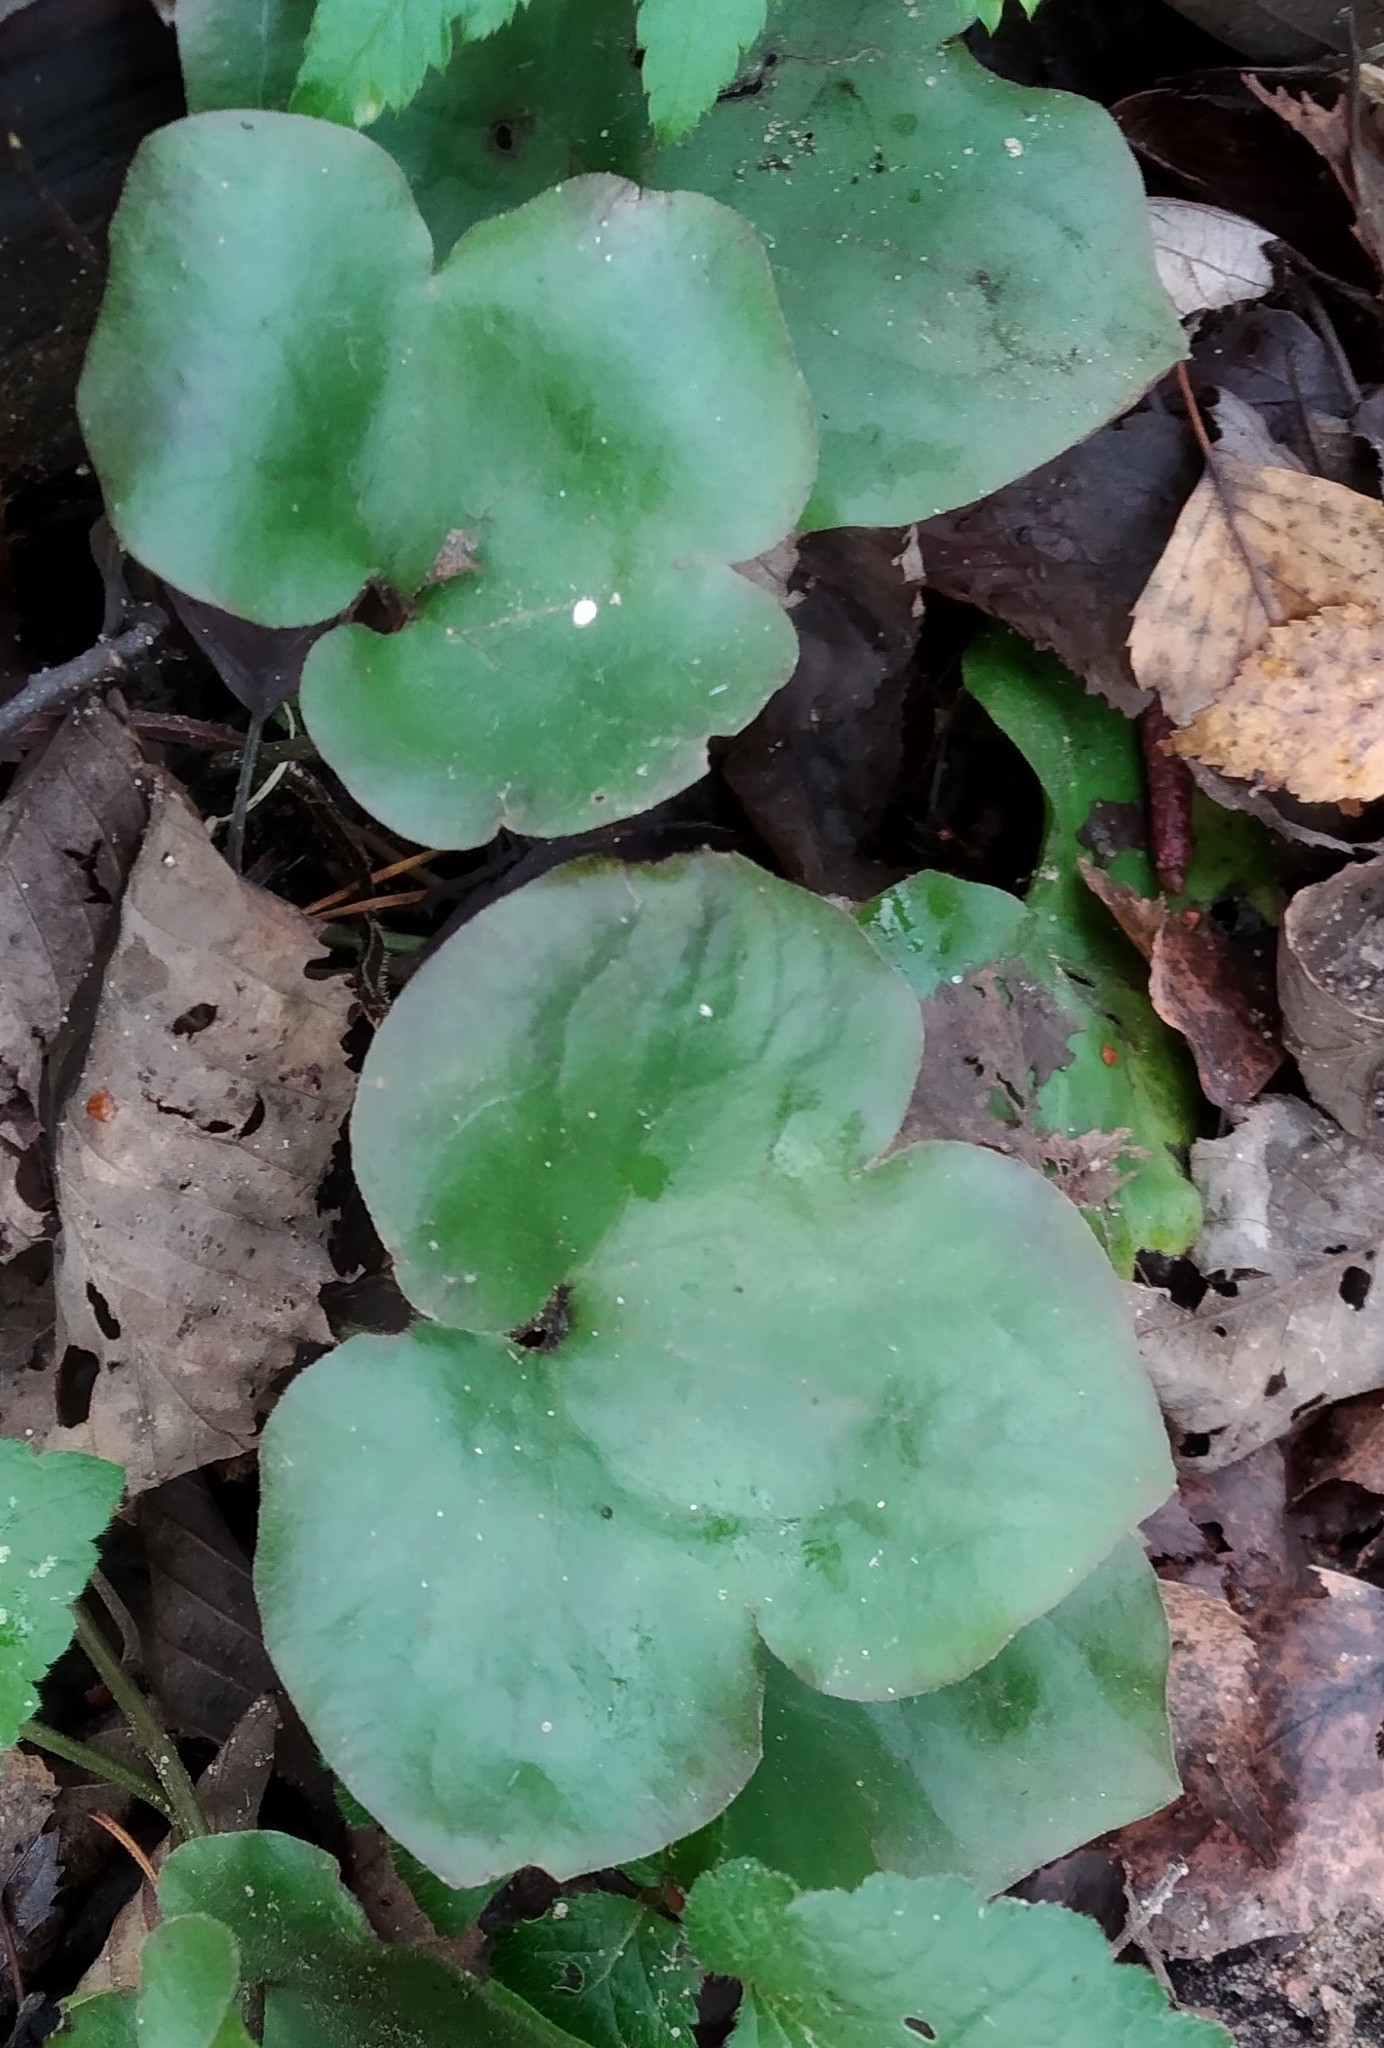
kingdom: Plantae
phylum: Tracheophyta
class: Magnoliopsida
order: Ranunculales
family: Ranunculaceae
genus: Hepatica
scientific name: Hepatica nobilis
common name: Liverleaf
